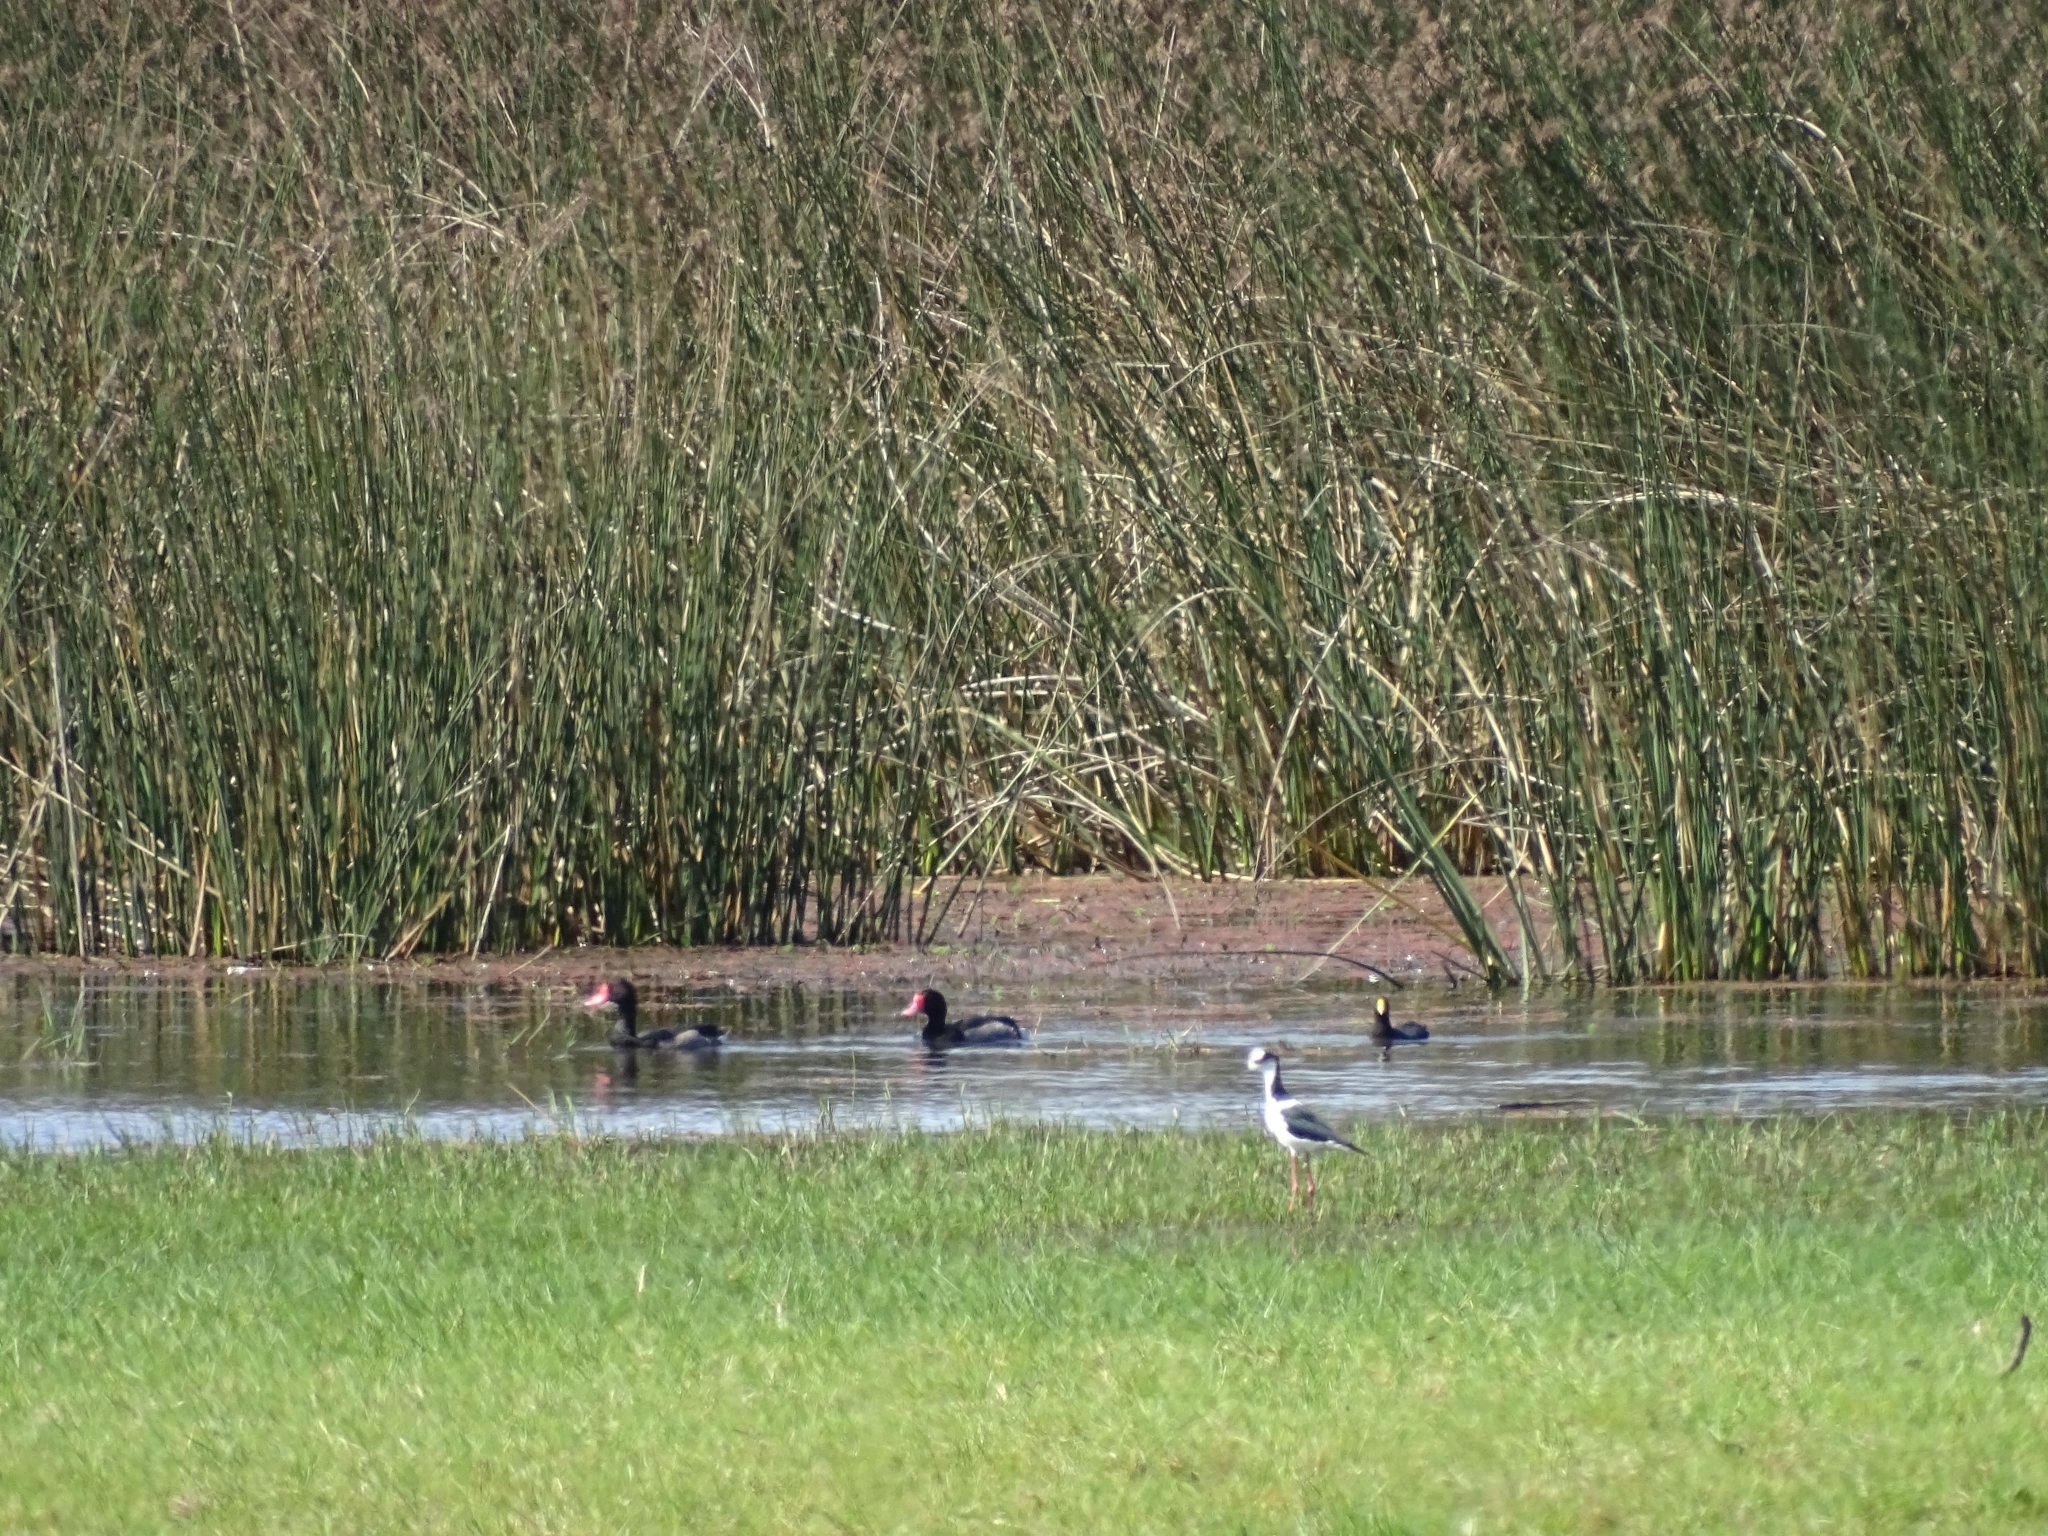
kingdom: Animalia
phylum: Chordata
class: Aves
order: Anseriformes
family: Anatidae
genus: Netta
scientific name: Netta peposaca
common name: Rosy-billed pochard
